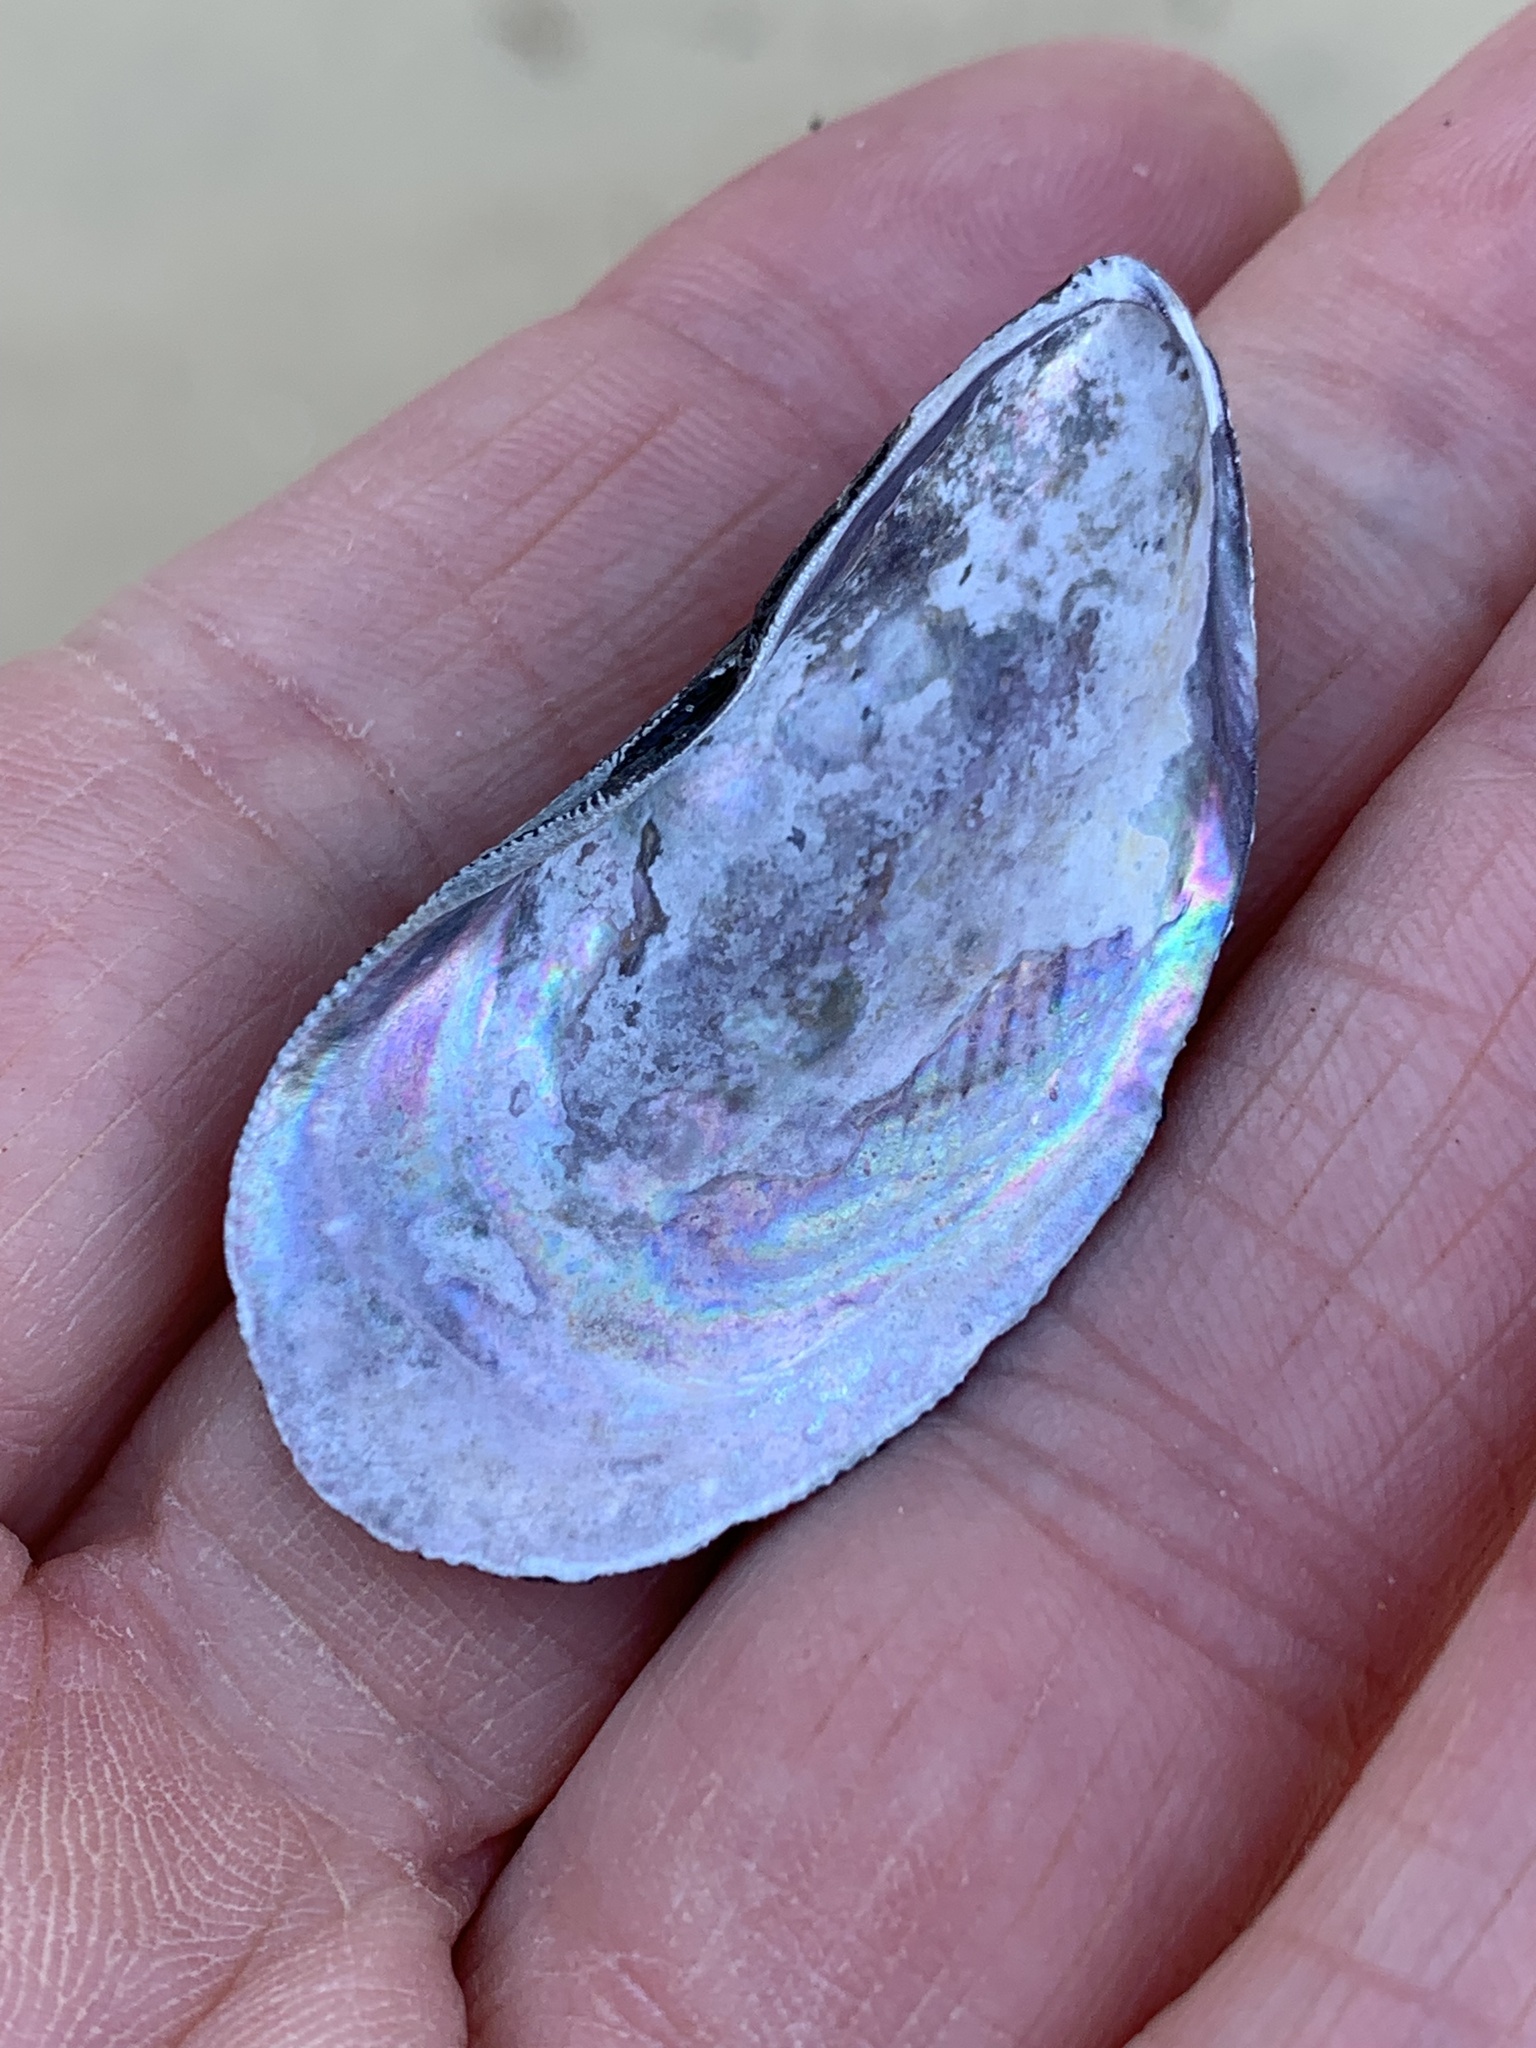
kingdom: Animalia
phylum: Mollusca
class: Bivalvia
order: Mytilida
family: Mytilidae
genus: Ischadium
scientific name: Ischadium recurvum
